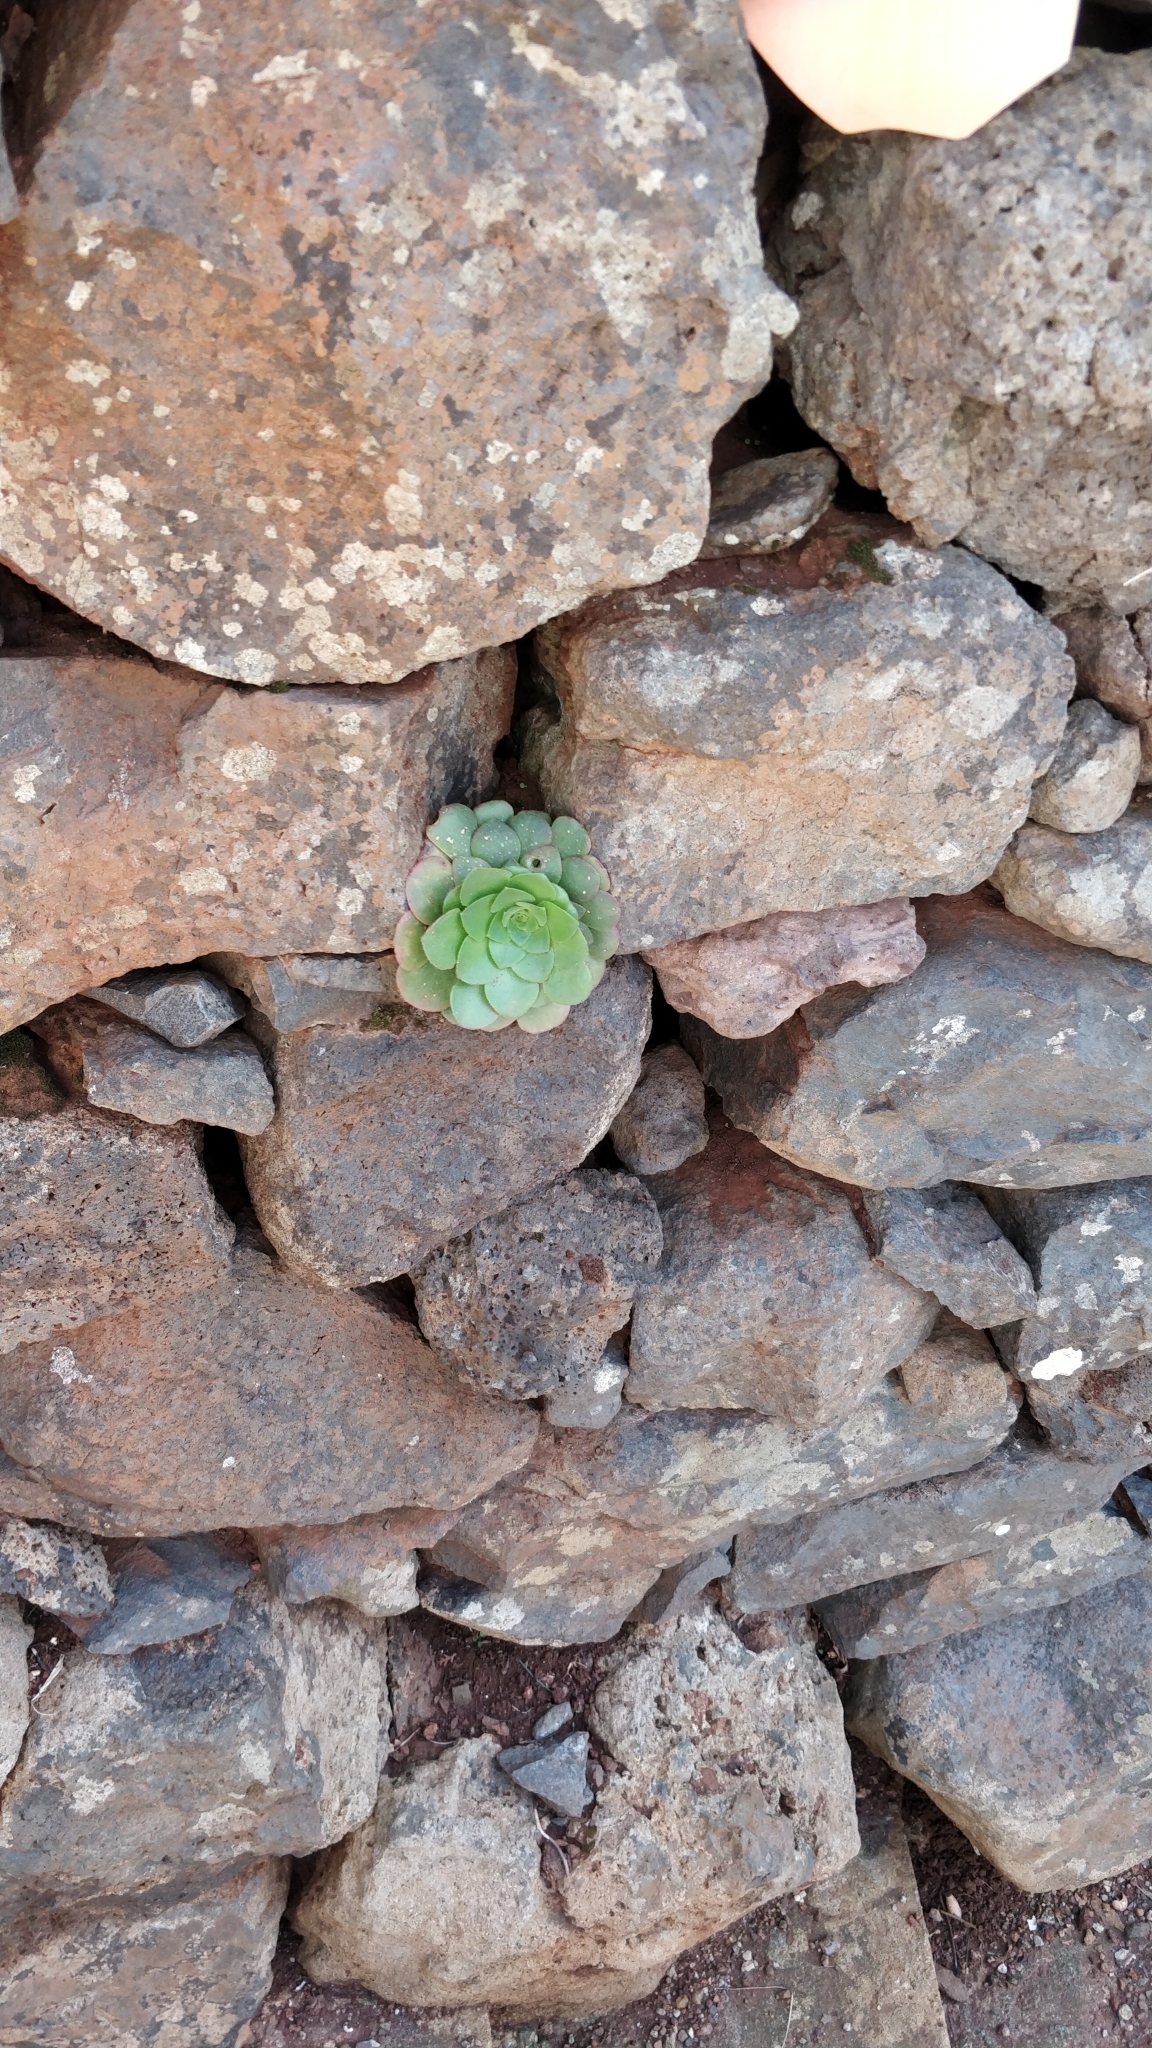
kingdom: Plantae
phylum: Tracheophyta
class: Magnoliopsida
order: Saxifragales
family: Crassulaceae
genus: Aeonium
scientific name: Aeonium glandulosum
